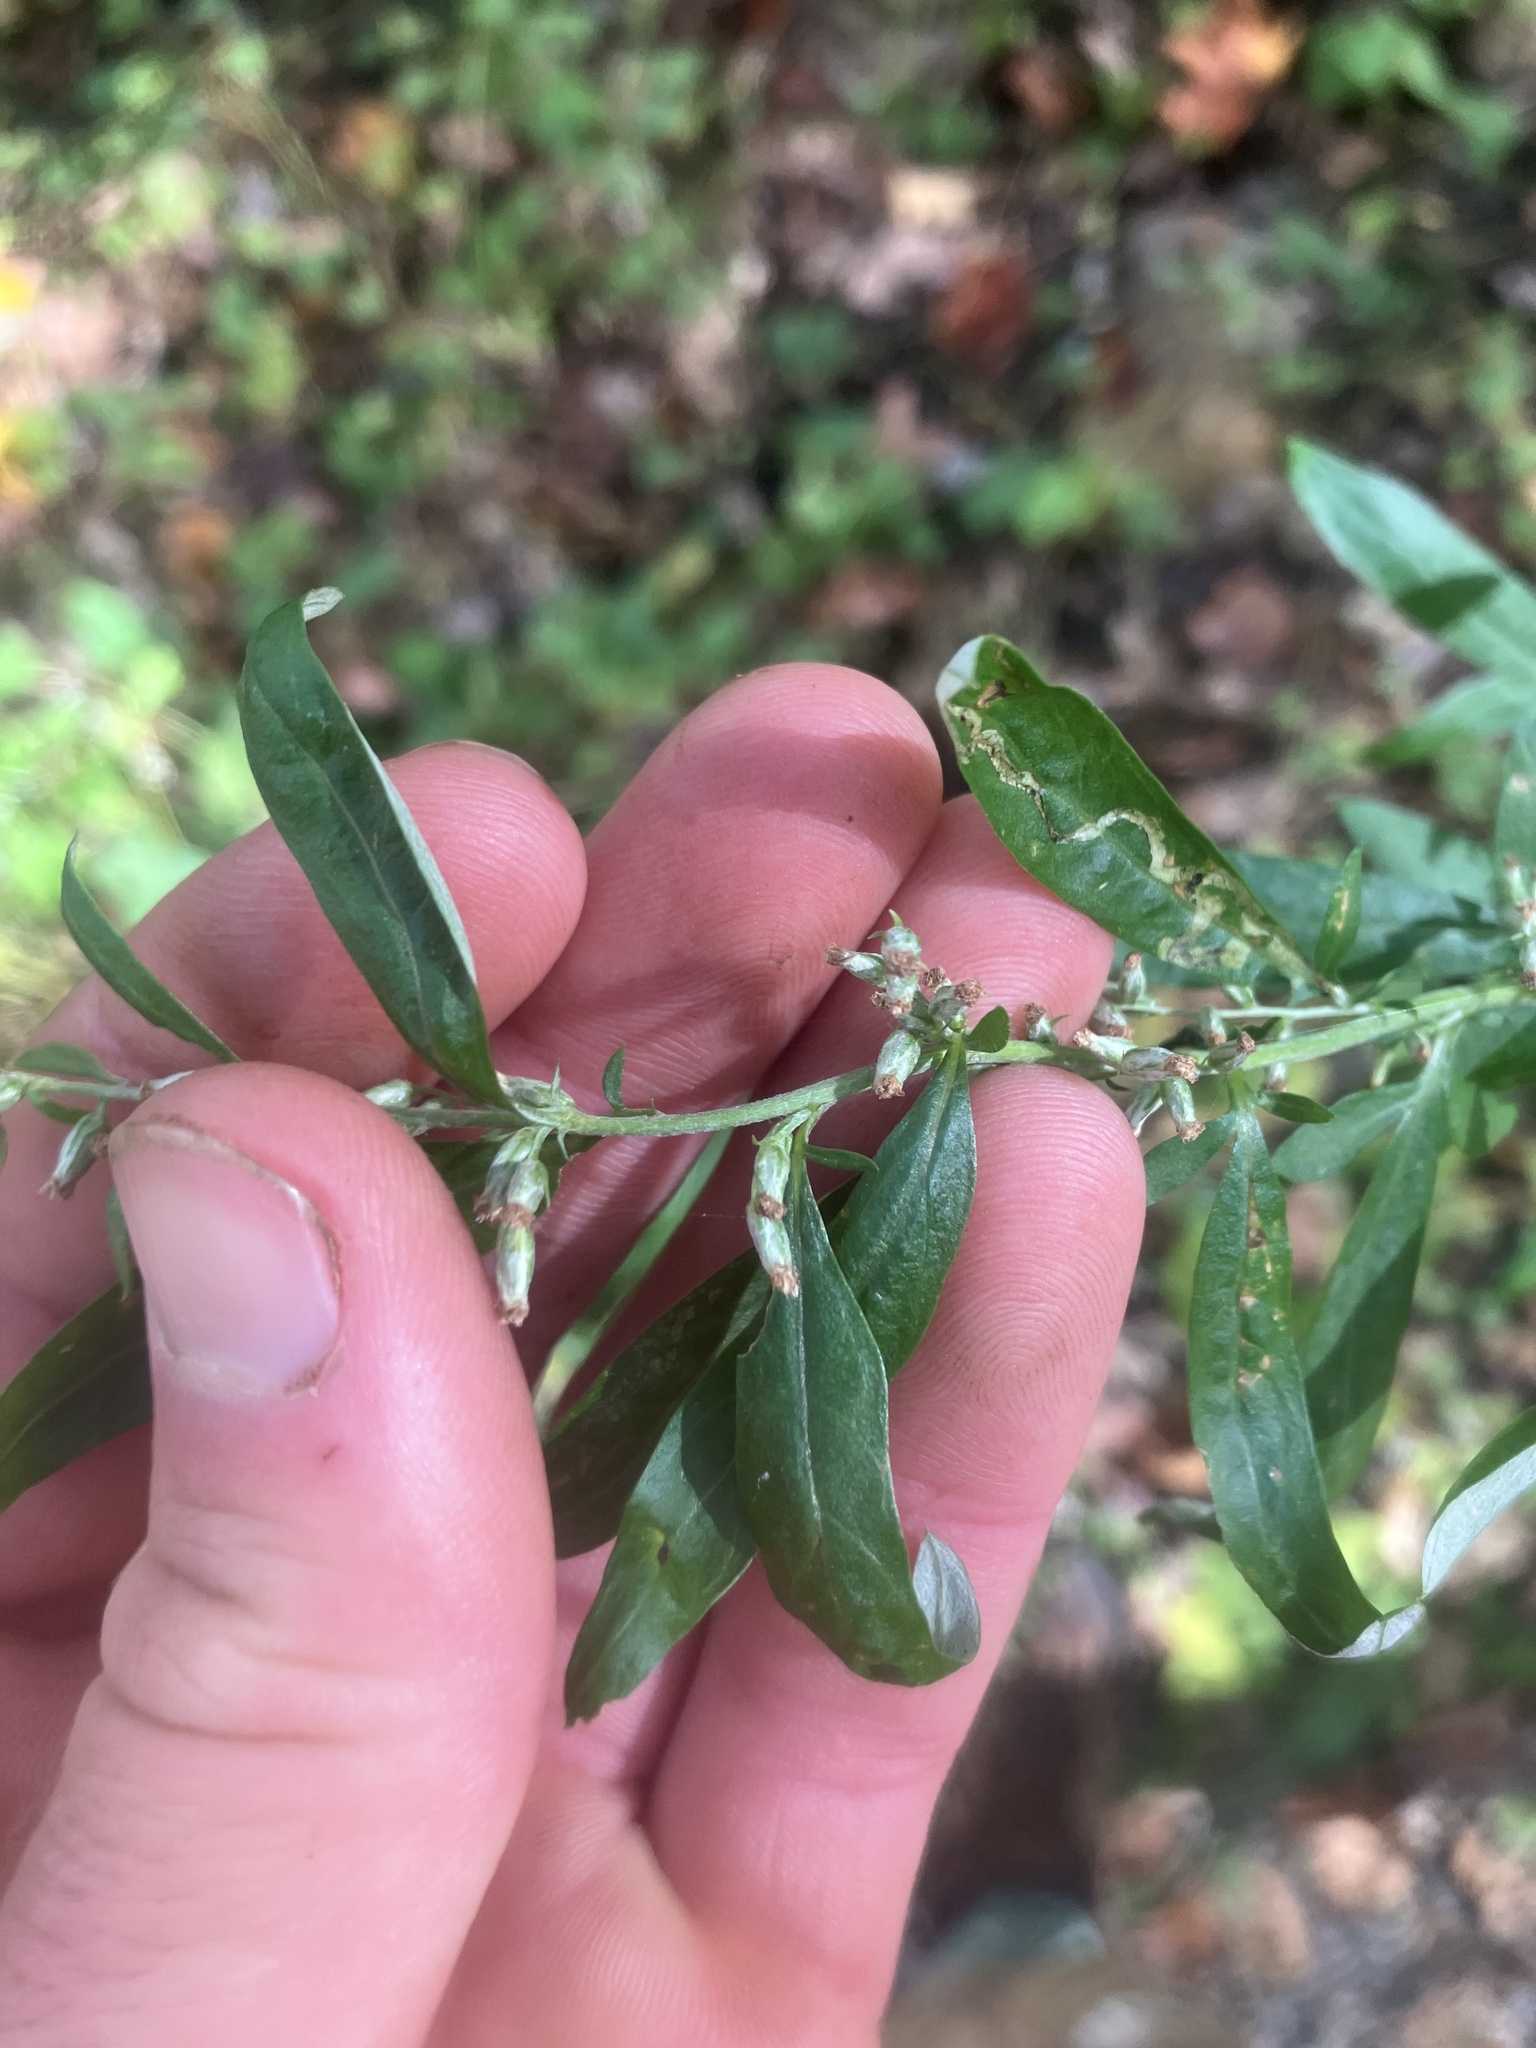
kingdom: Plantae
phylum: Tracheophyta
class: Magnoliopsida
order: Asterales
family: Asteraceae
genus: Artemisia
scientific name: Artemisia vulgaris
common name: Mugwort
